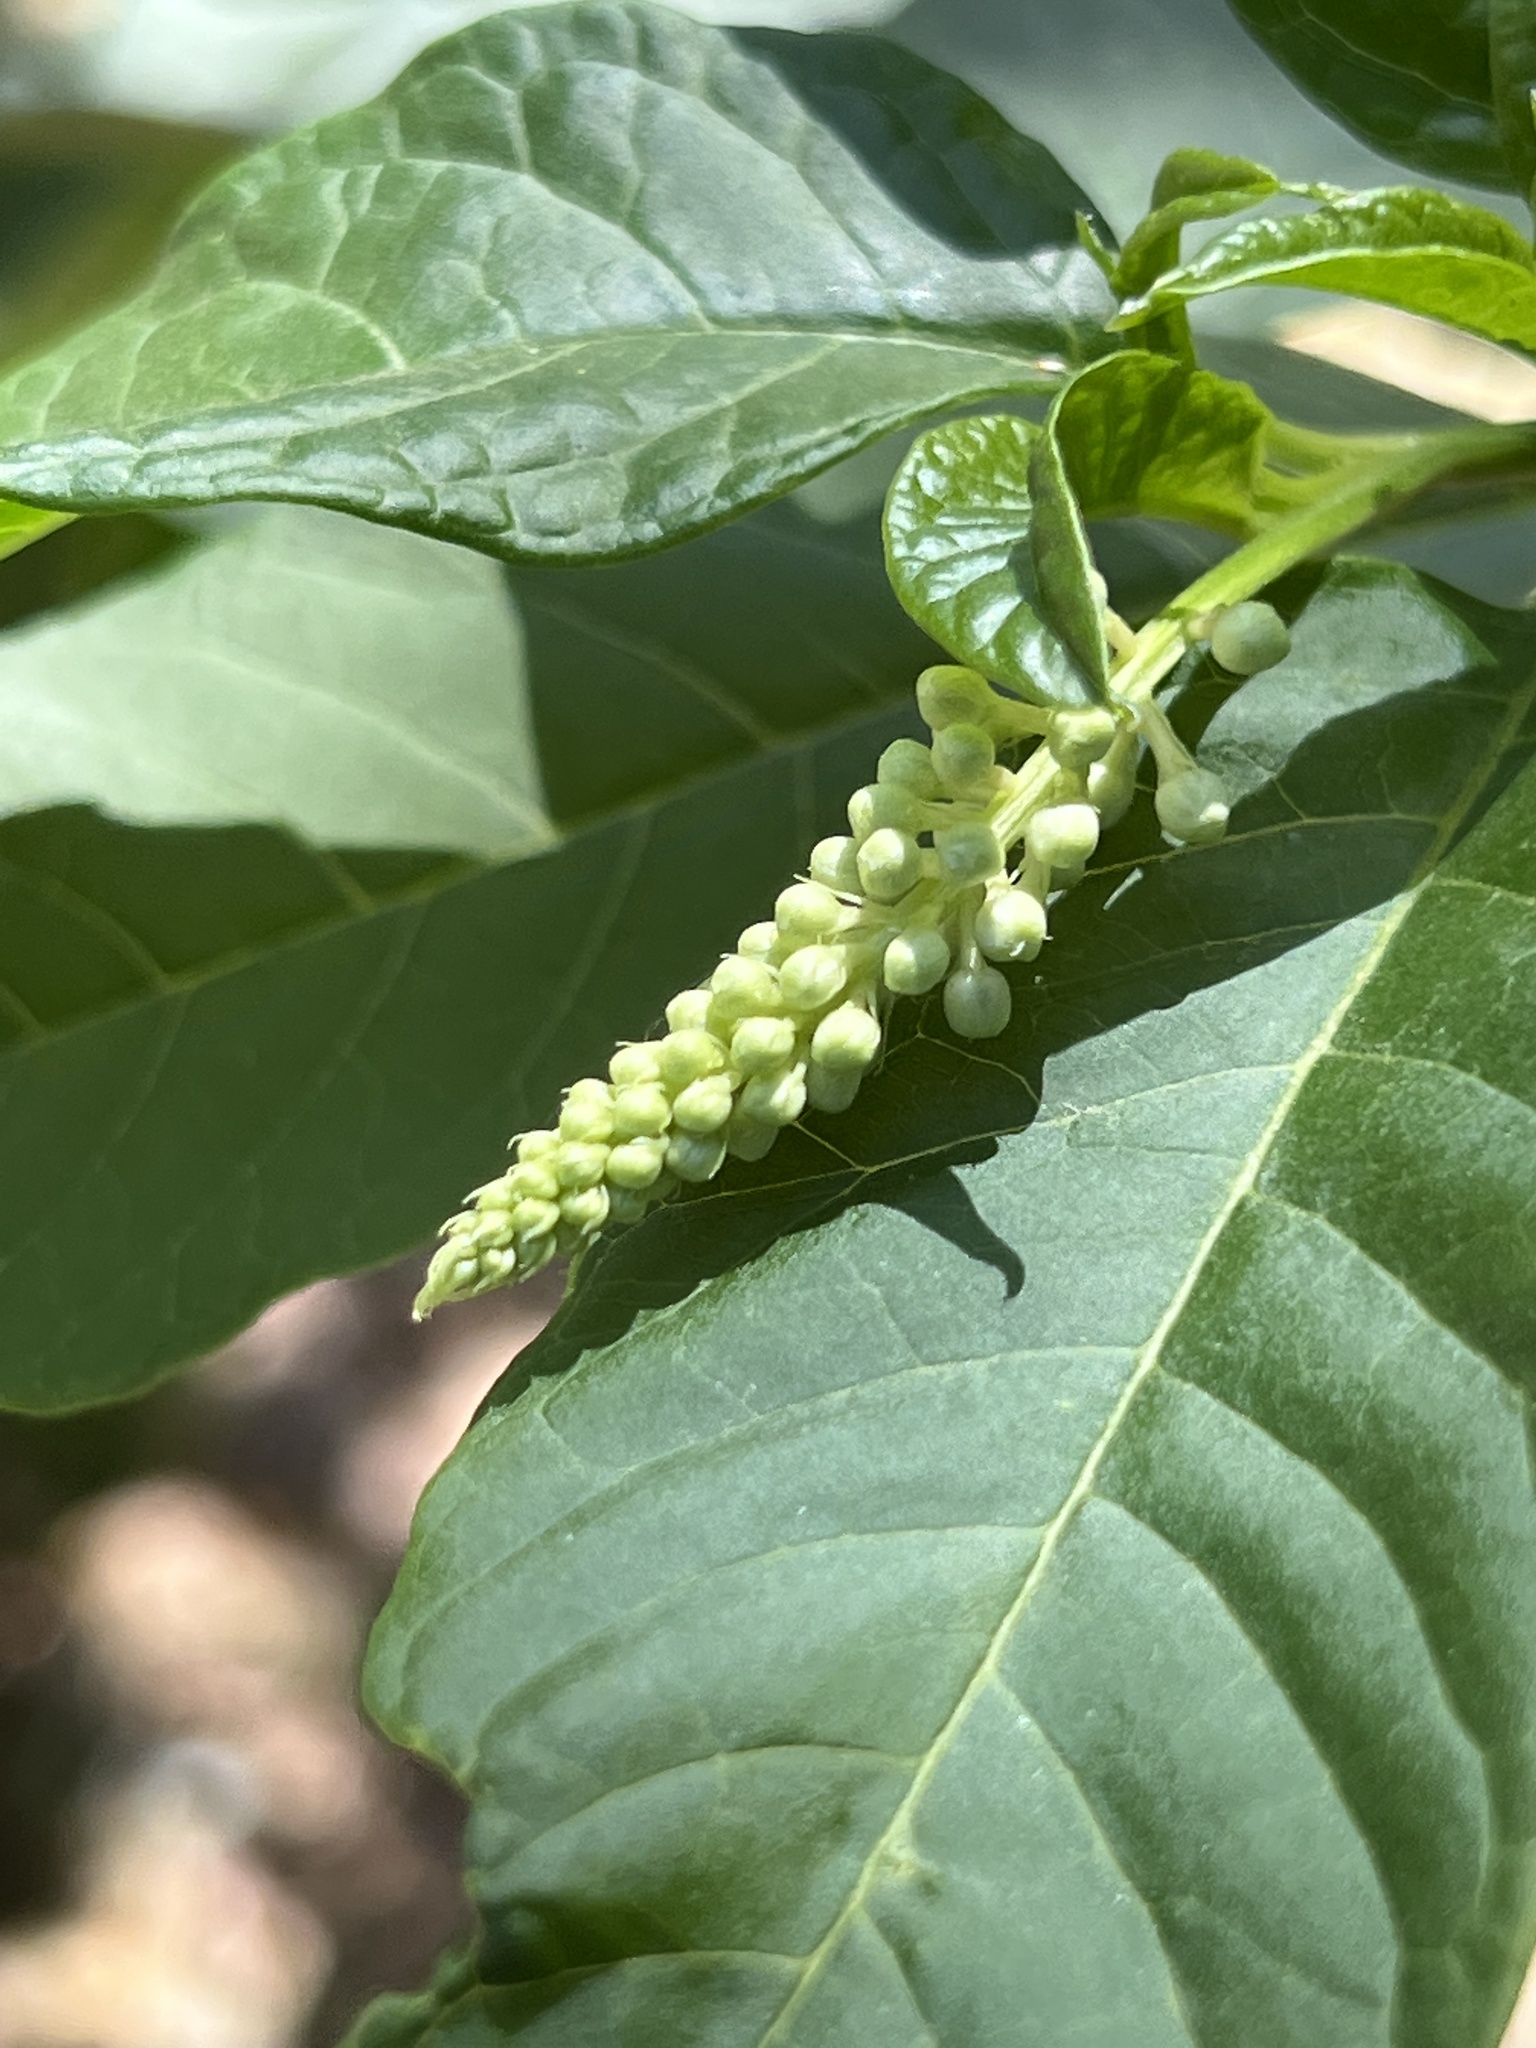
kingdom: Plantae
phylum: Tracheophyta
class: Magnoliopsida
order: Caryophyllales
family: Phytolaccaceae
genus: Phytolacca
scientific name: Phytolacca americana
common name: American pokeweed
